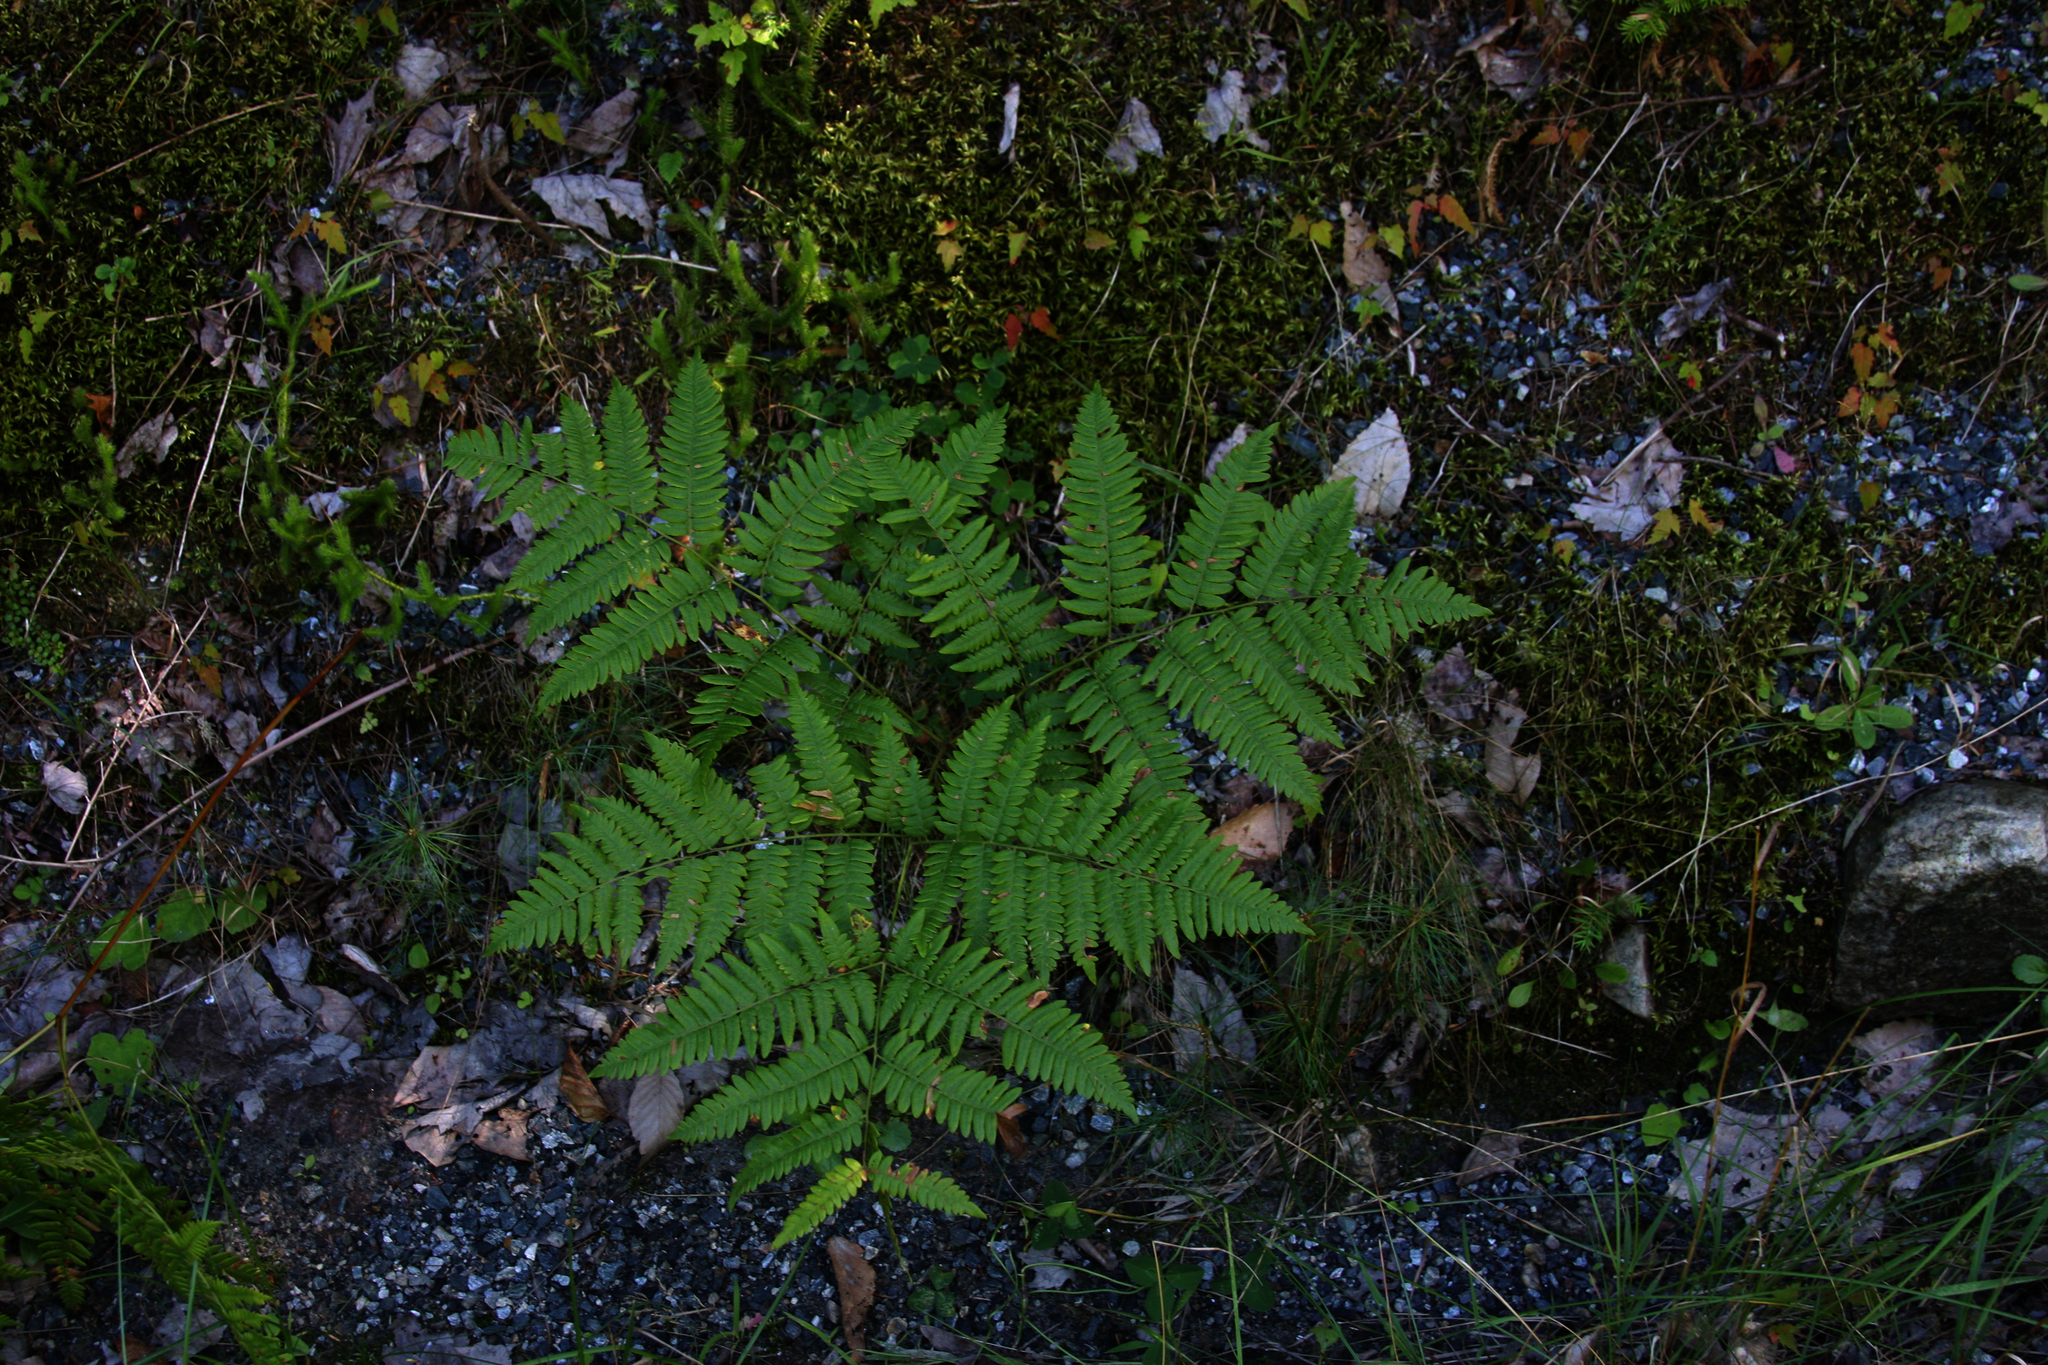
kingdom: Plantae
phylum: Tracheophyta
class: Polypodiopsida
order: Polypodiales
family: Dennstaedtiaceae
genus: Pteridium
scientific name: Pteridium aquilinum
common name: Bracken
